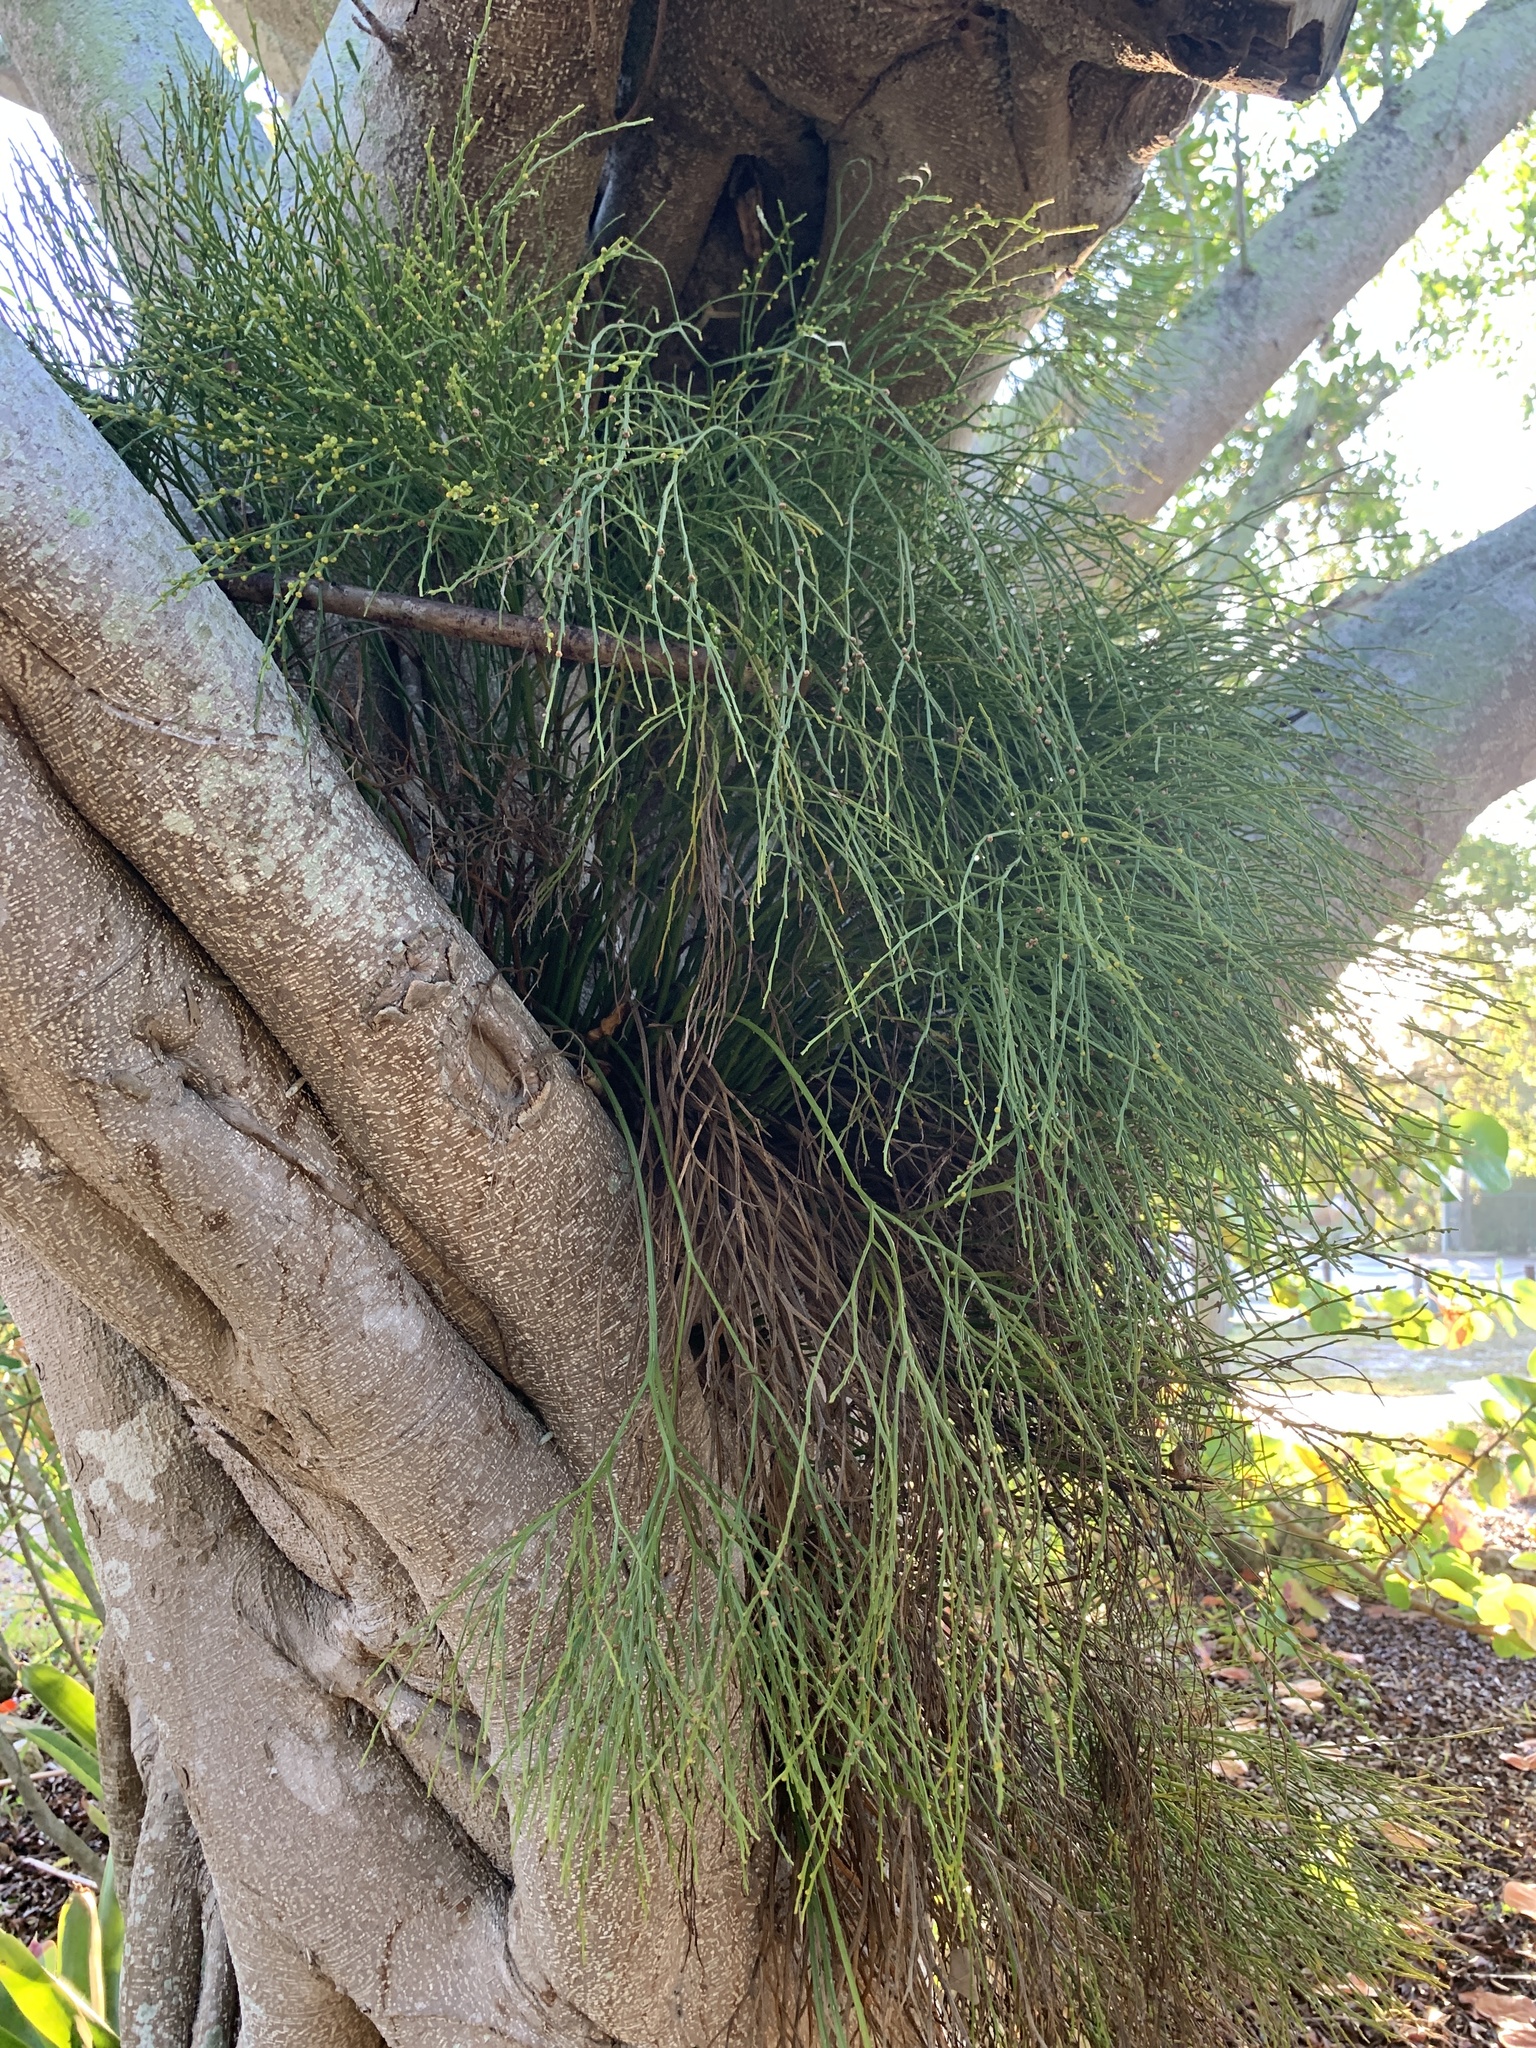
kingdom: Plantae
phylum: Tracheophyta
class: Polypodiopsida
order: Psilotales
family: Psilotaceae
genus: Psilotum
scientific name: Psilotum nudum
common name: Skeleton fork fern
